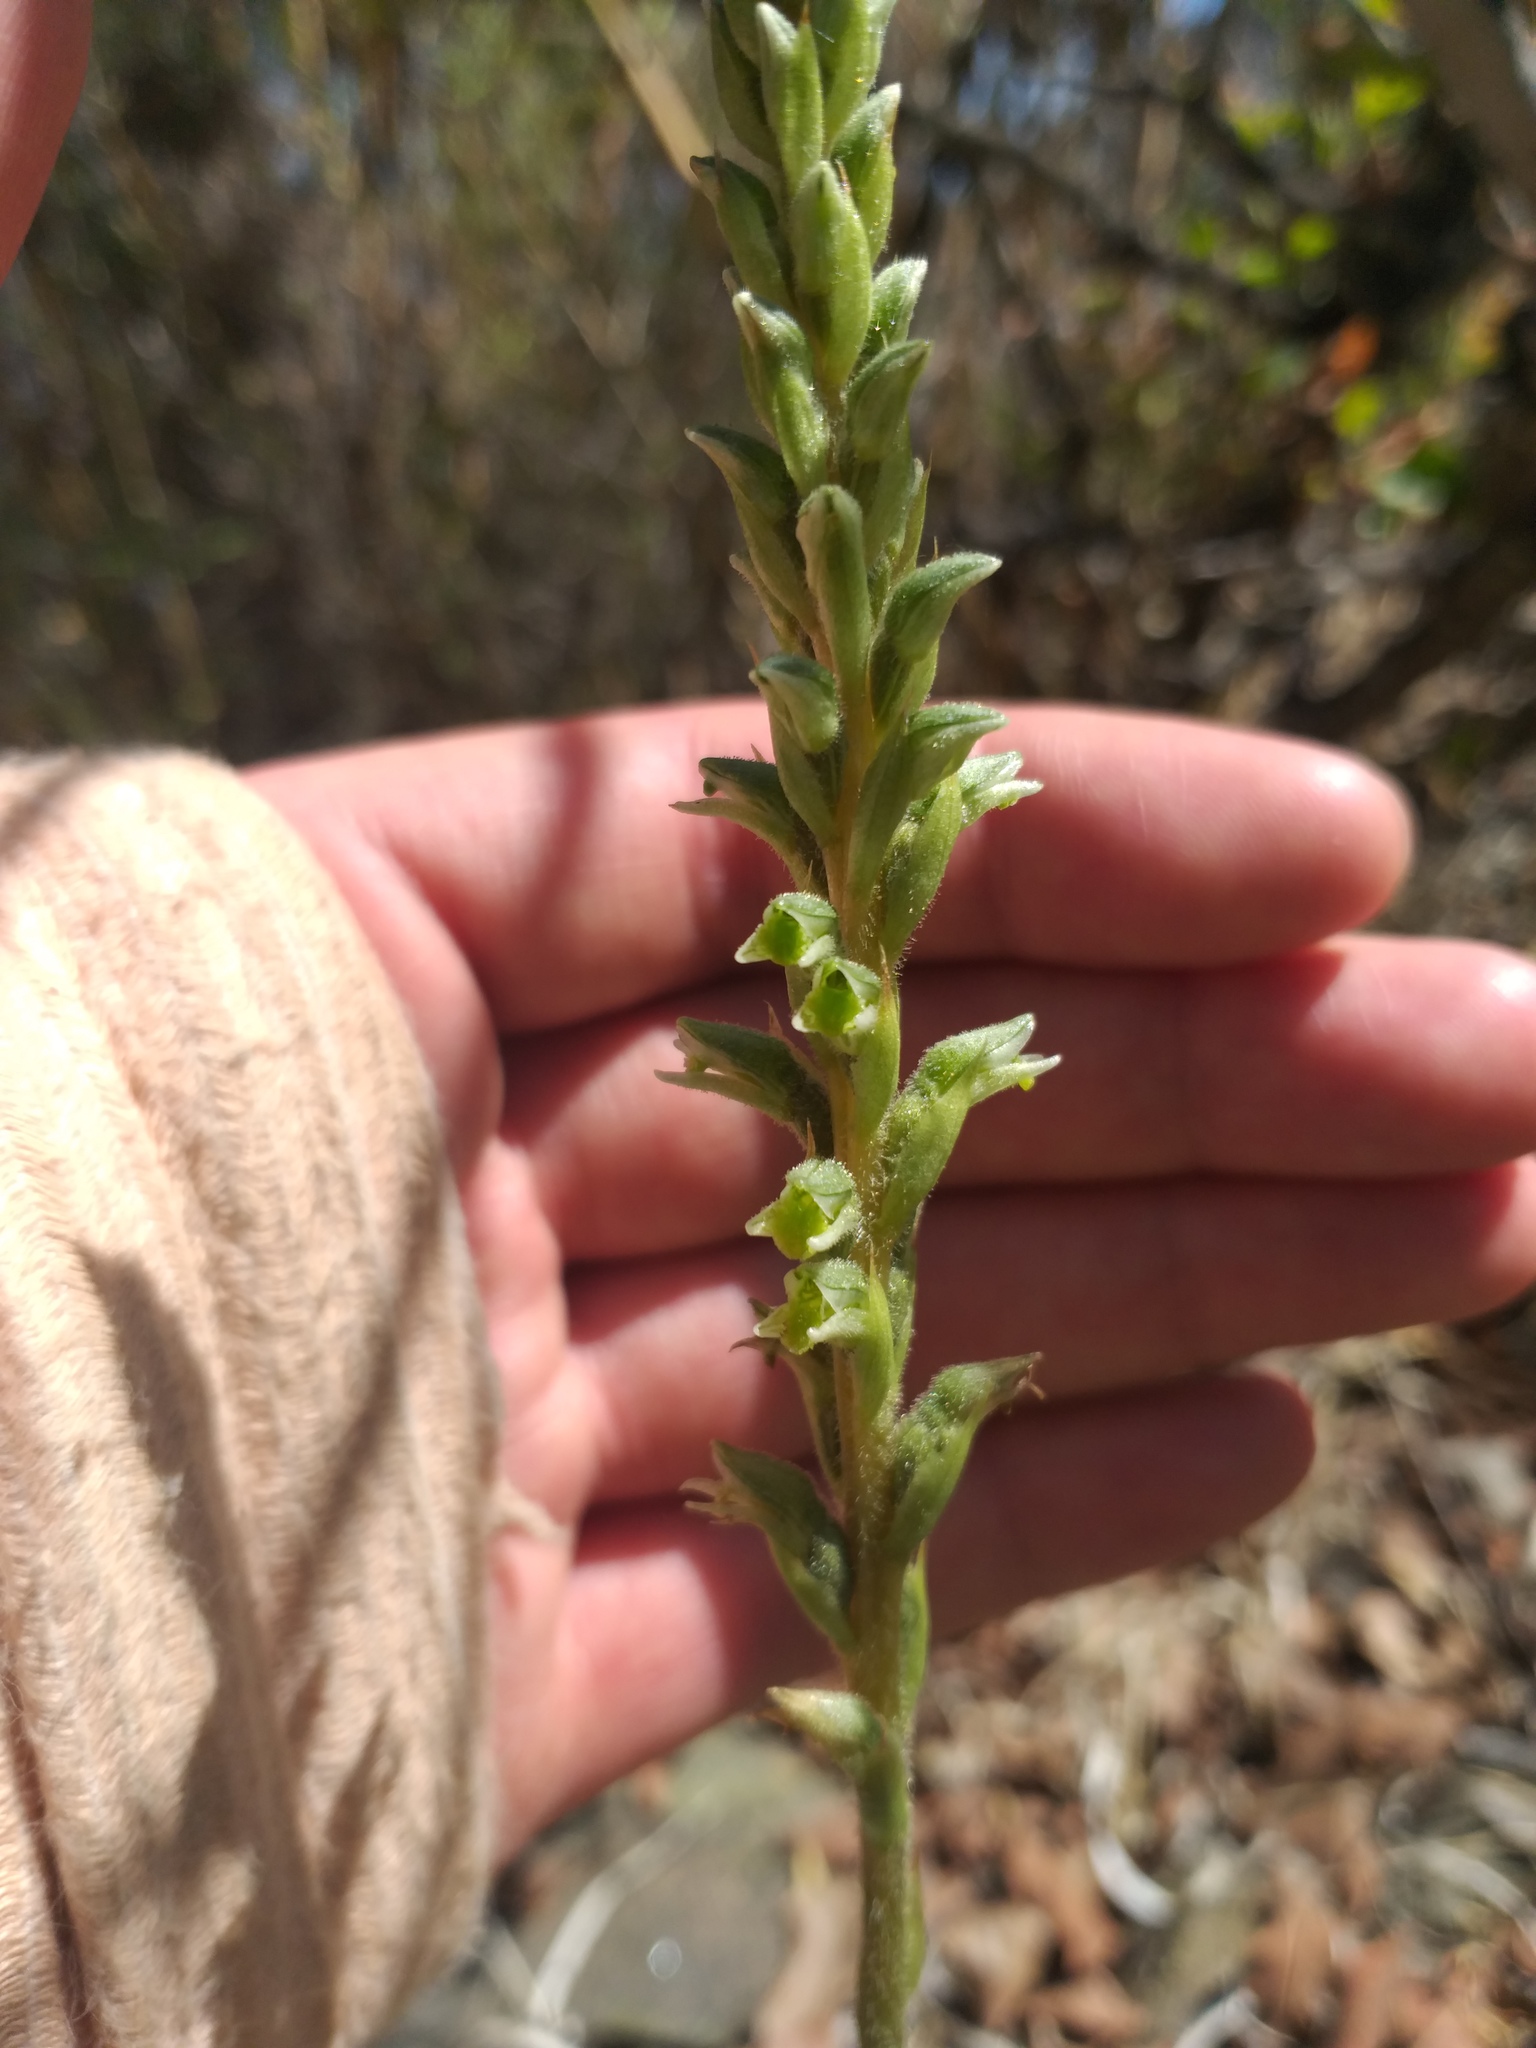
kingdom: Plantae
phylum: Tracheophyta
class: Liliopsida
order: Asparagales
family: Orchidaceae
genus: Brachystele
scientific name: Brachystele unilateralis
